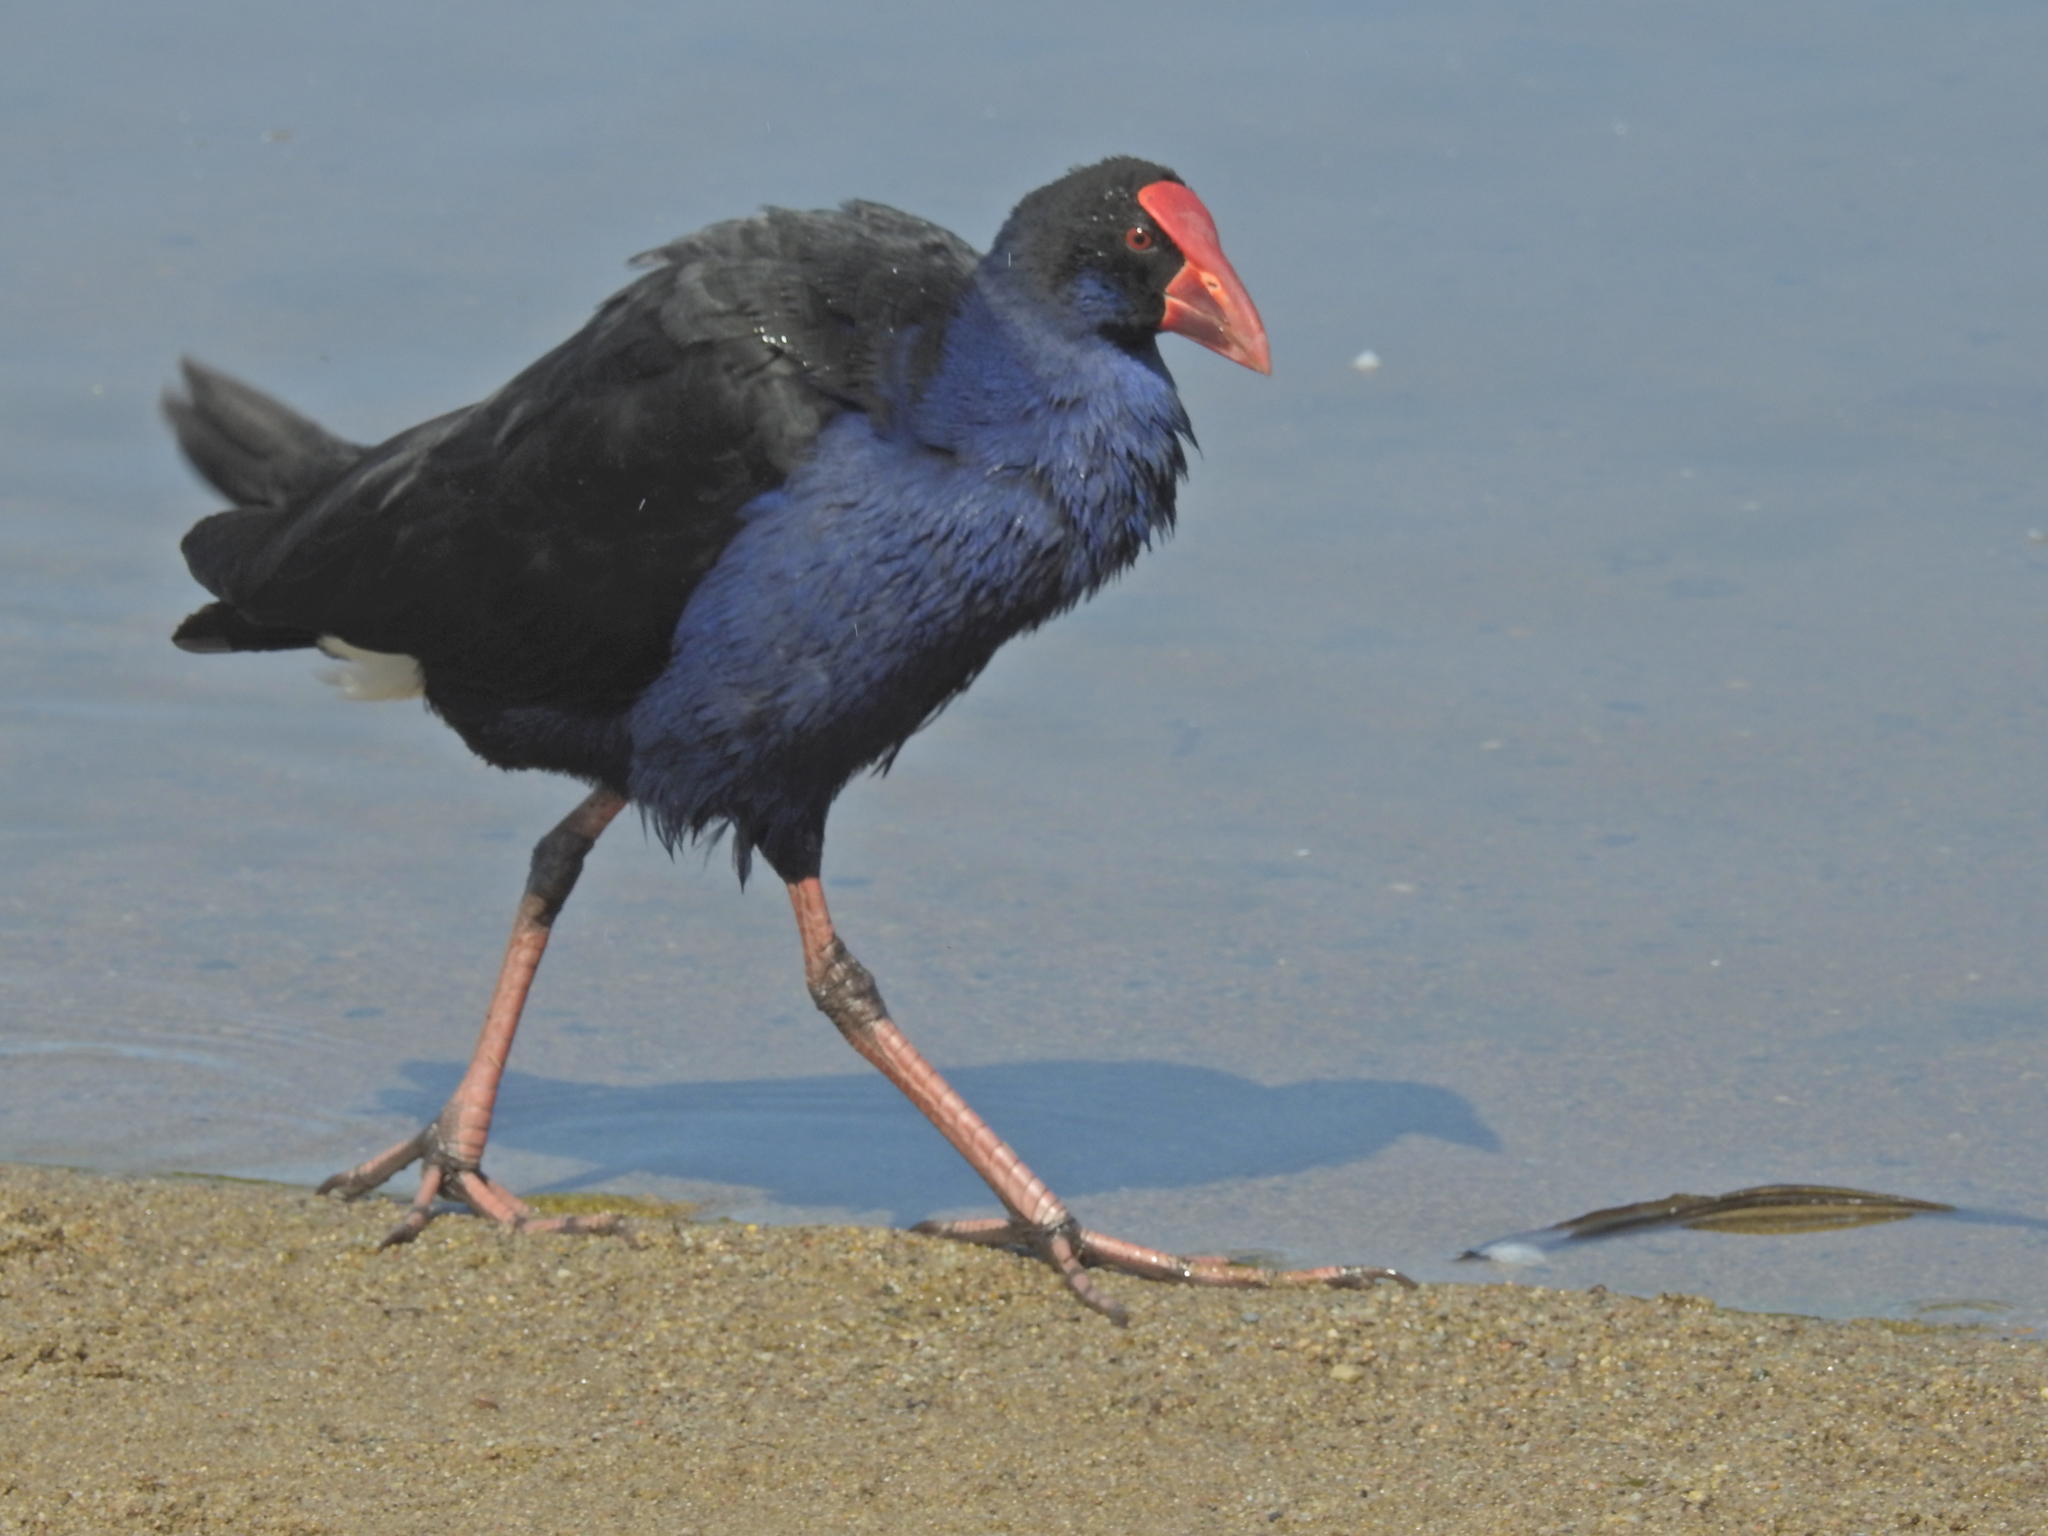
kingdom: Animalia
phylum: Chordata
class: Aves
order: Gruiformes
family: Rallidae
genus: Porphyrio
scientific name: Porphyrio melanotus
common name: Australasian swamphen
